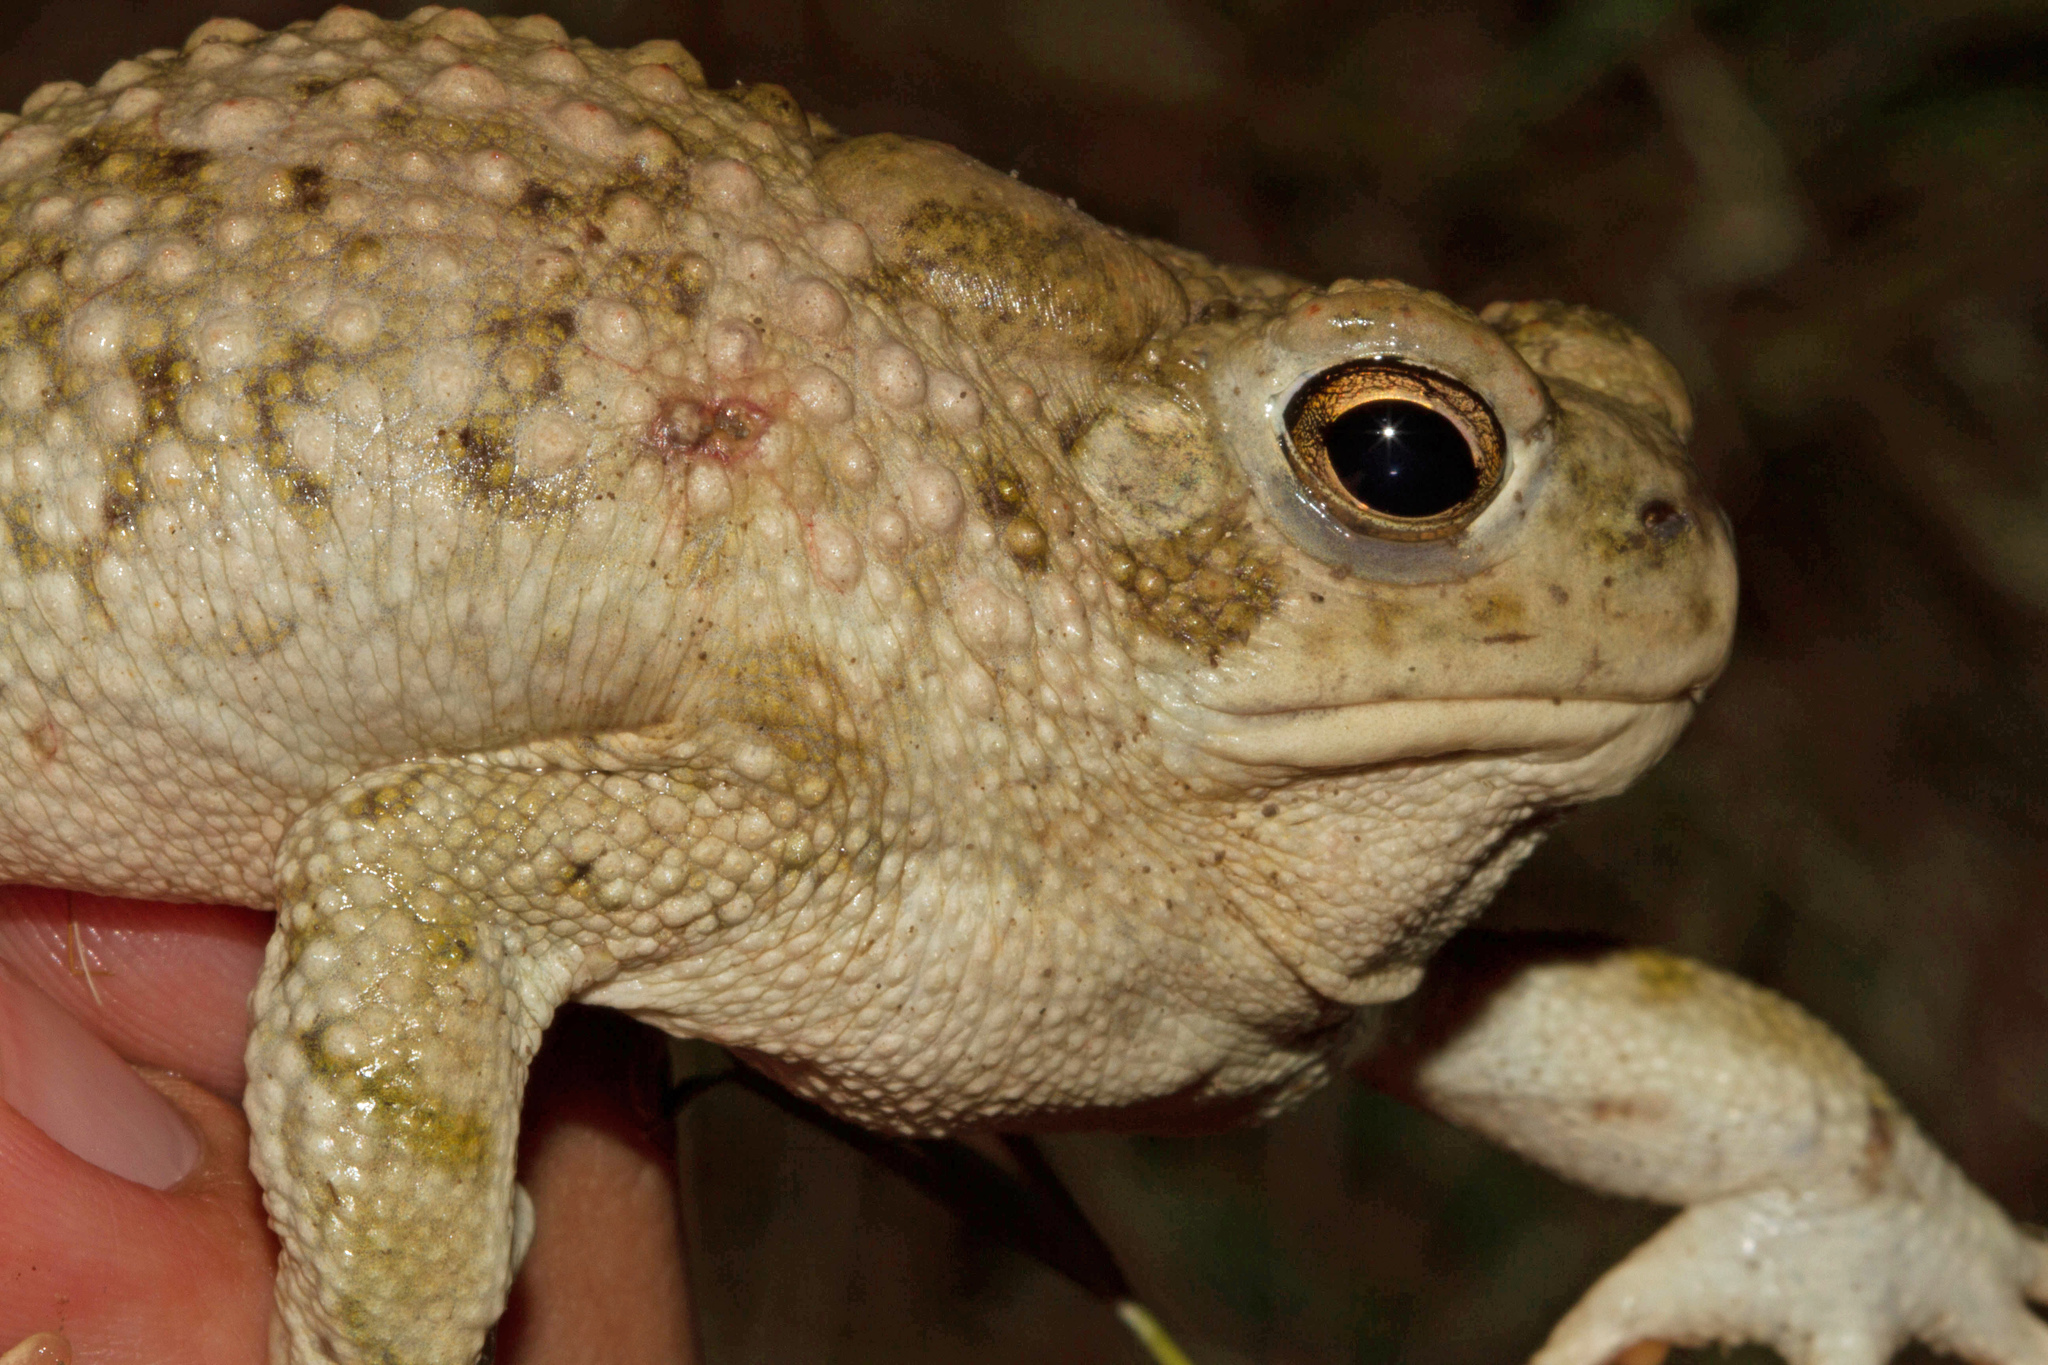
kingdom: Animalia
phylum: Chordata
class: Amphibia
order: Anura
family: Bufonidae
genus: Anaxyrus
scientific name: Anaxyrus speciosus
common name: Texas toad
